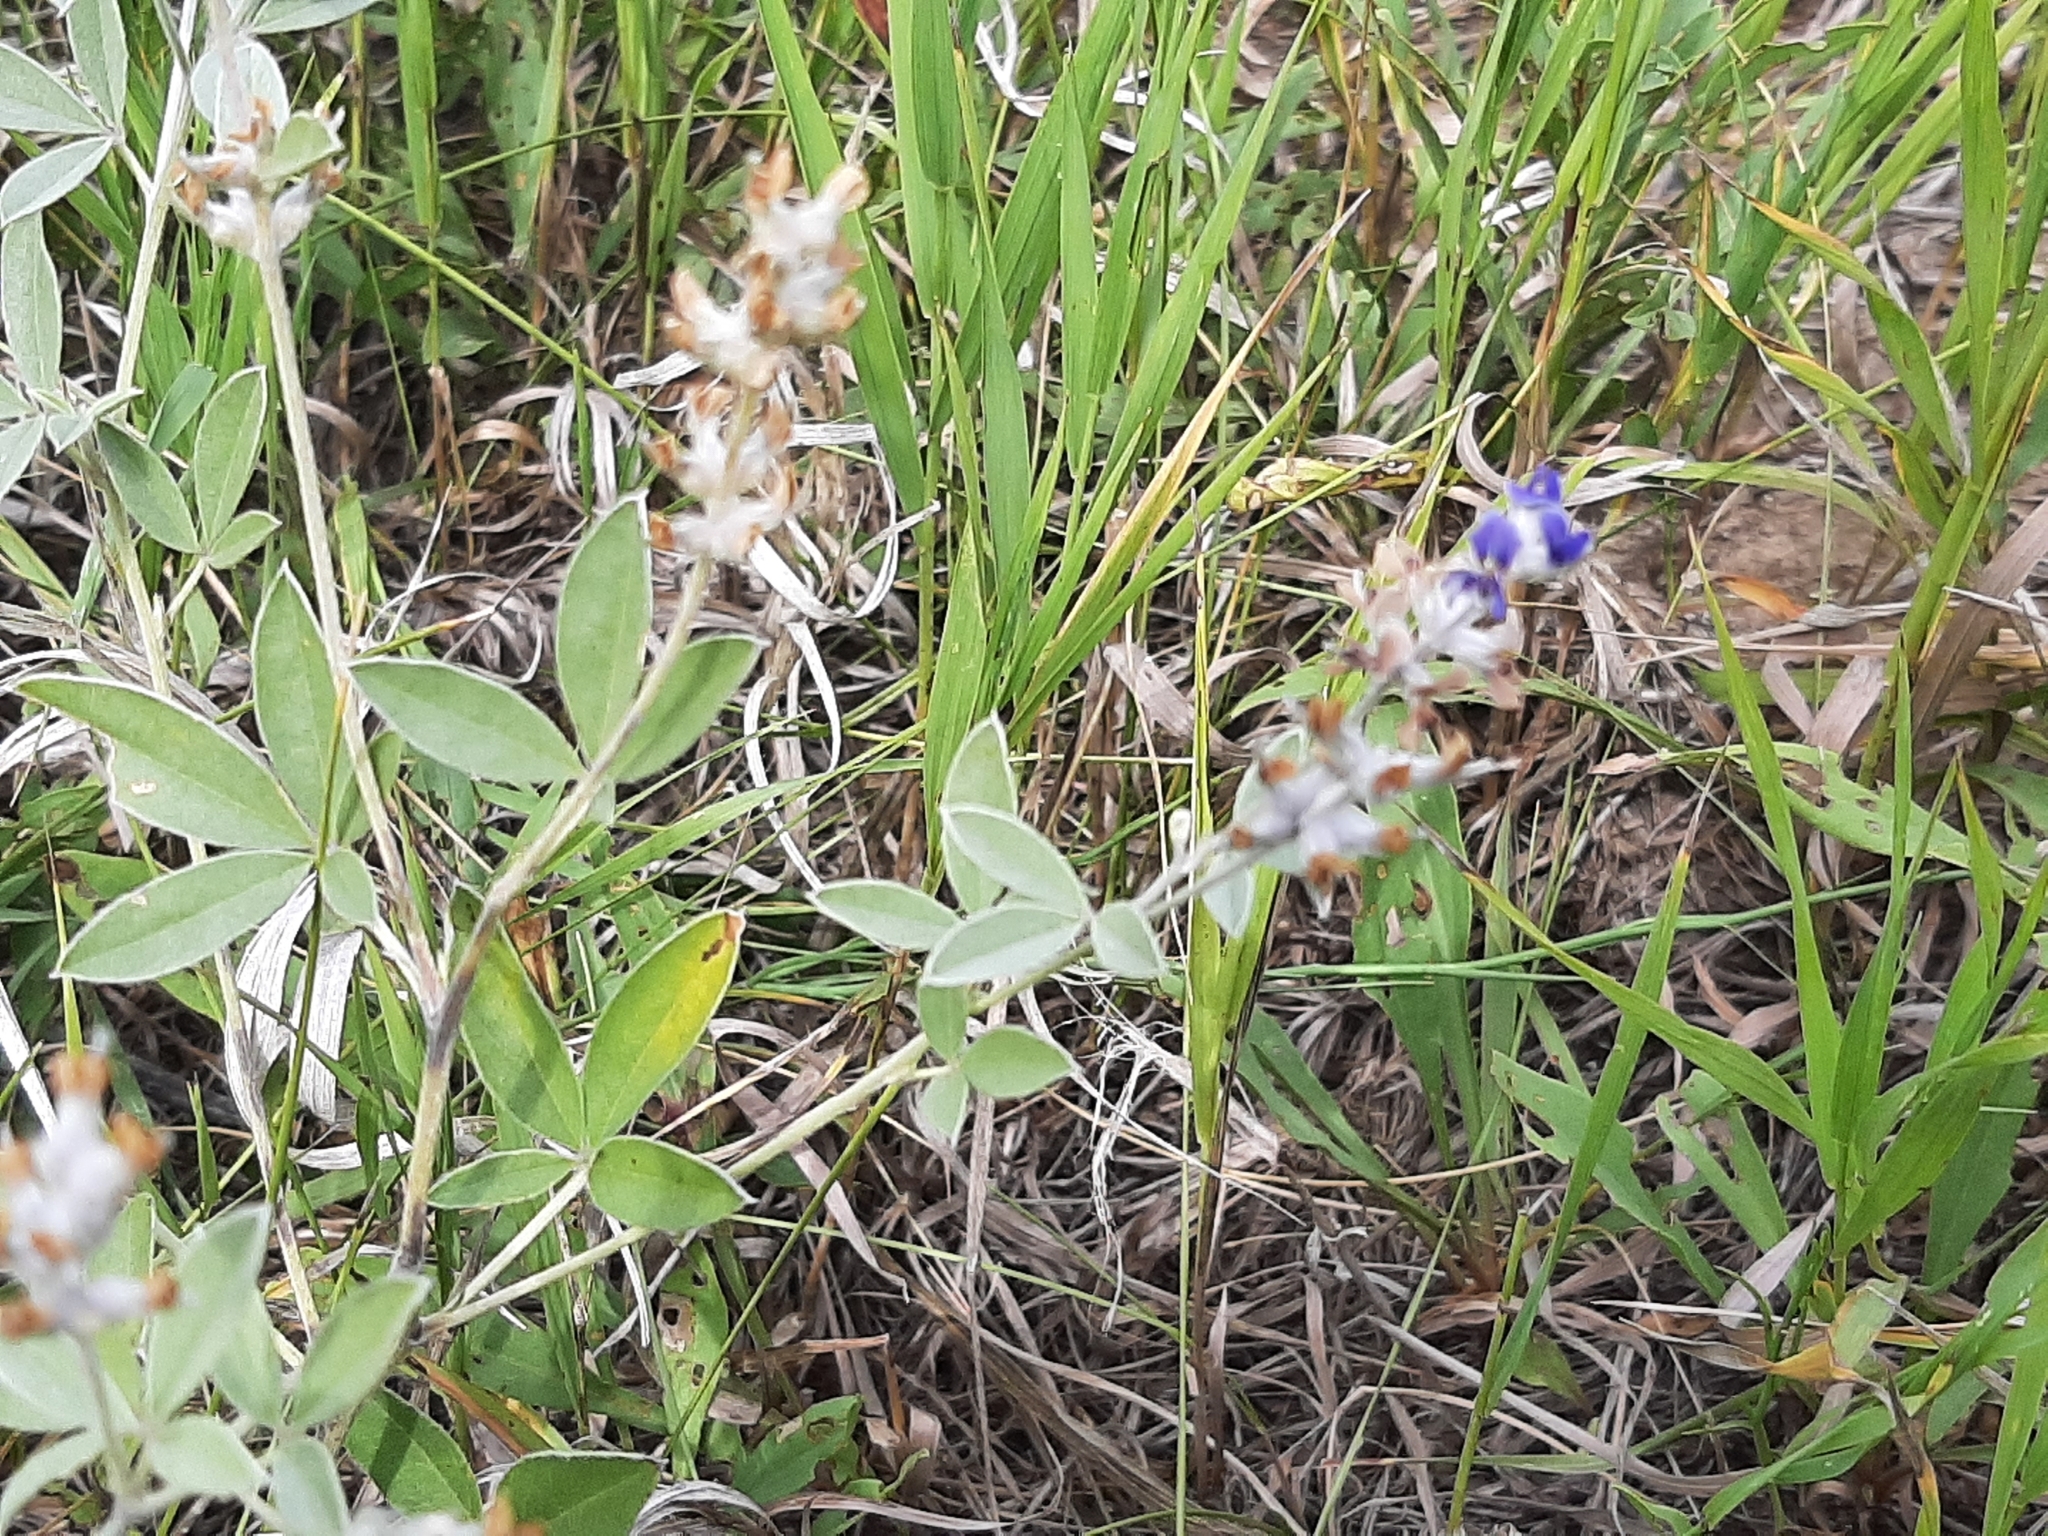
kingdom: Plantae
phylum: Tracheophyta
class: Magnoliopsida
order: Fabales
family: Fabaceae
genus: Pediomelum
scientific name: Pediomelum argophyllum
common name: Silver-leaved indian breadroot
